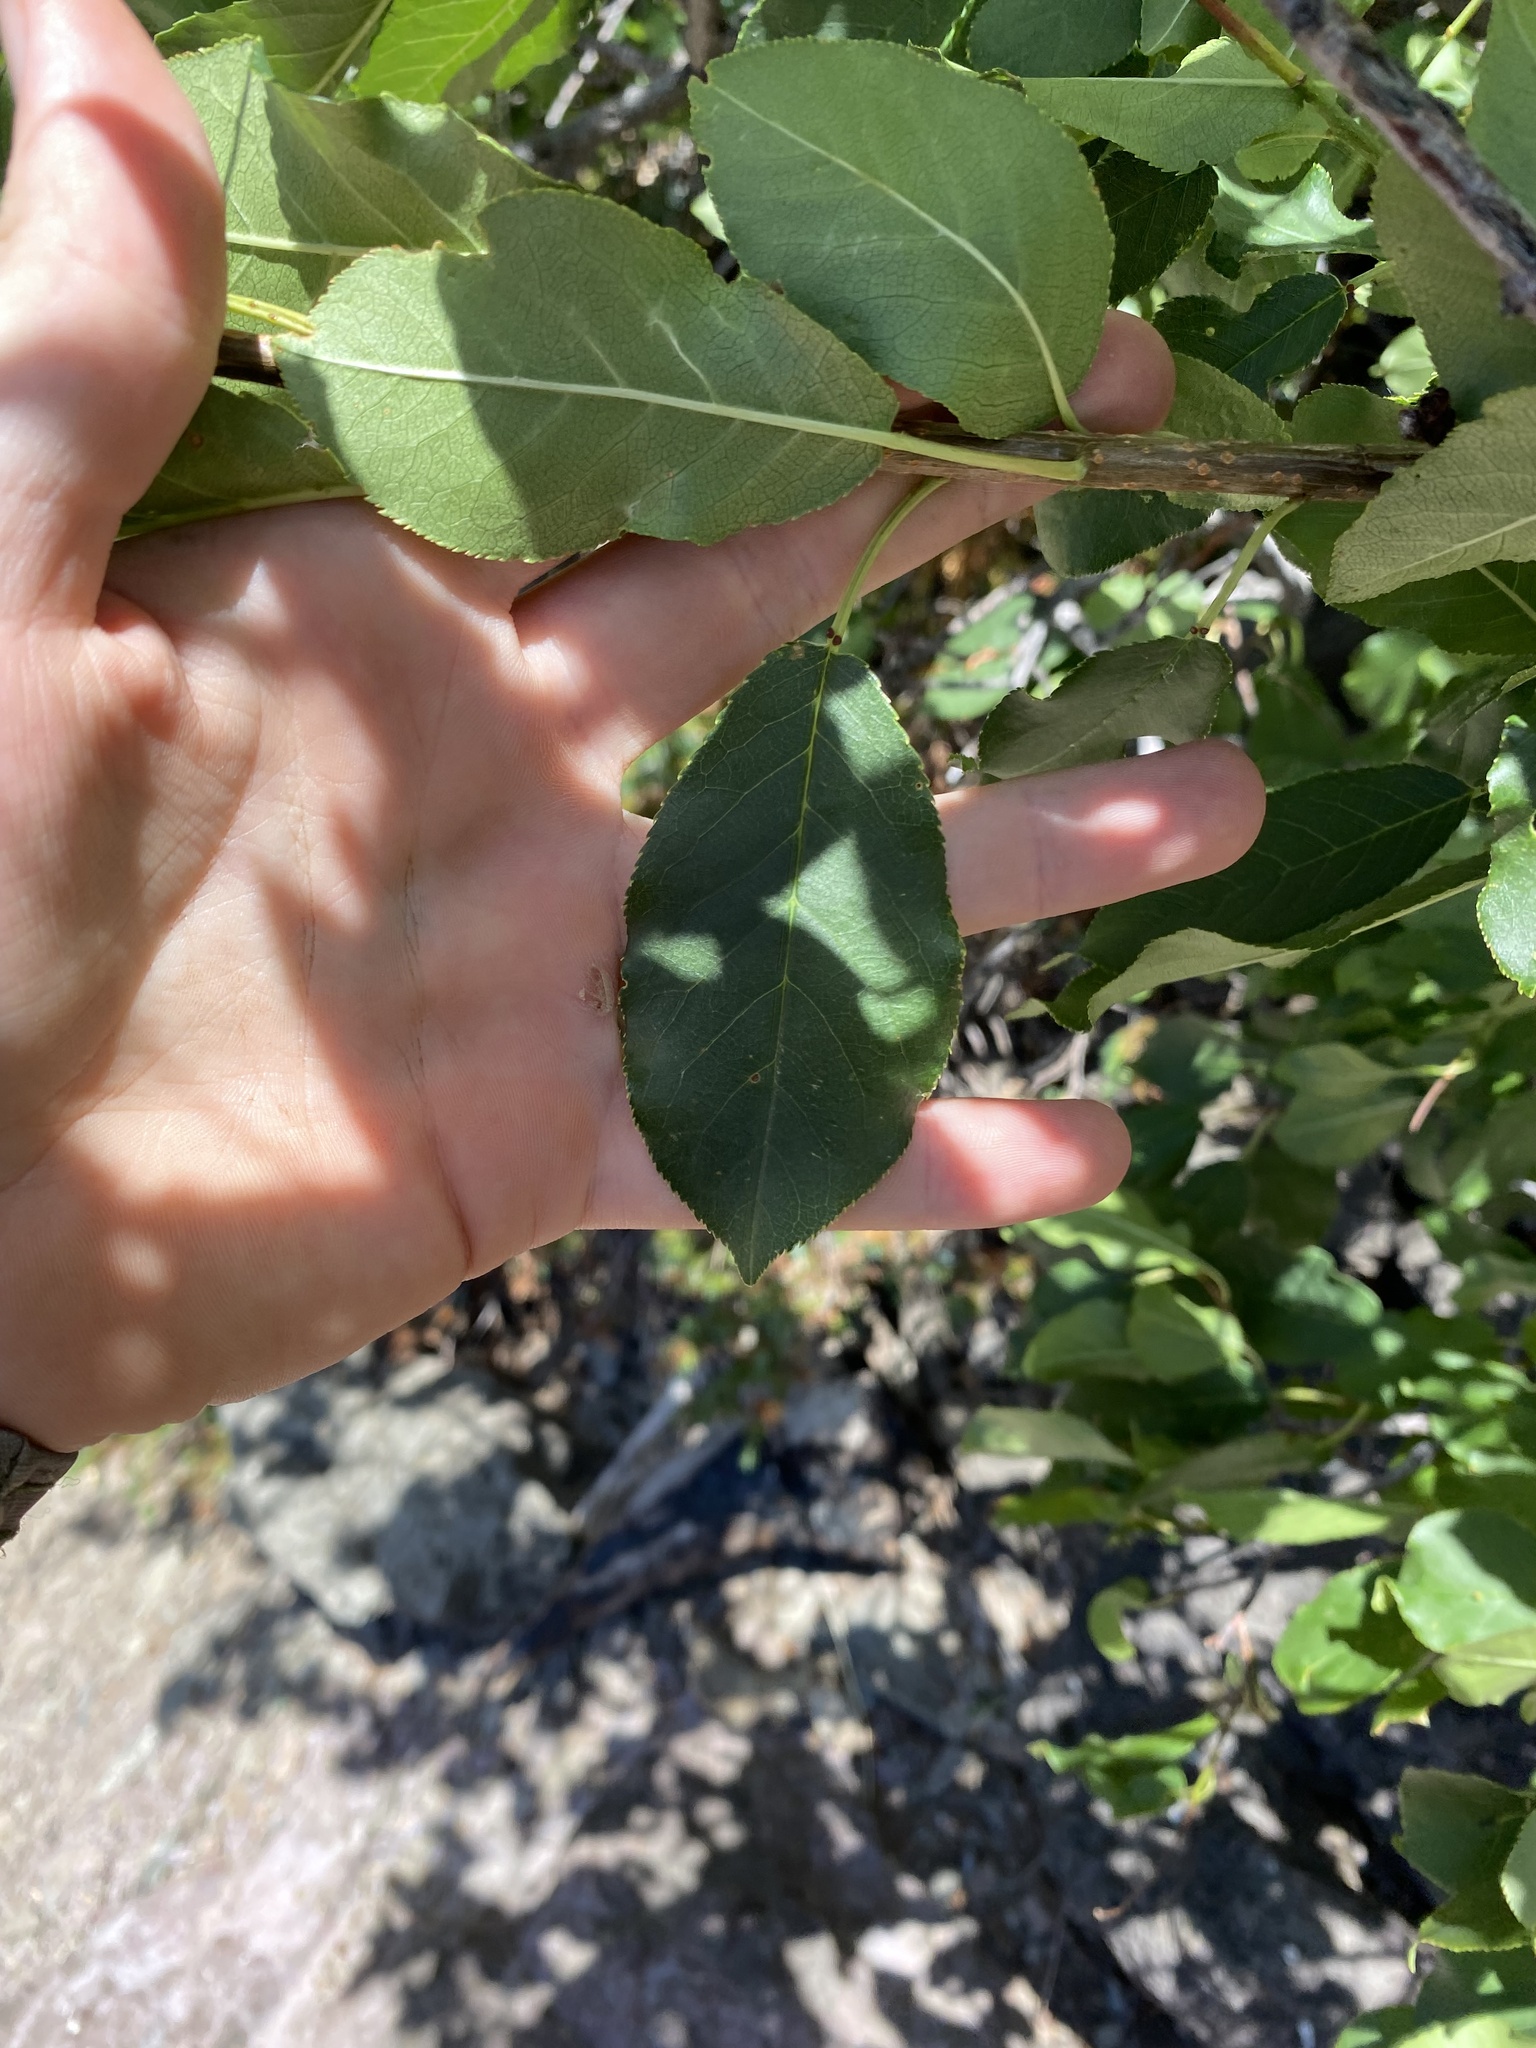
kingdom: Plantae
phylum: Tracheophyta
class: Magnoliopsida
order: Rosales
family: Rosaceae
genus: Prunus
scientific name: Prunus virginiana
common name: Chokecherry
